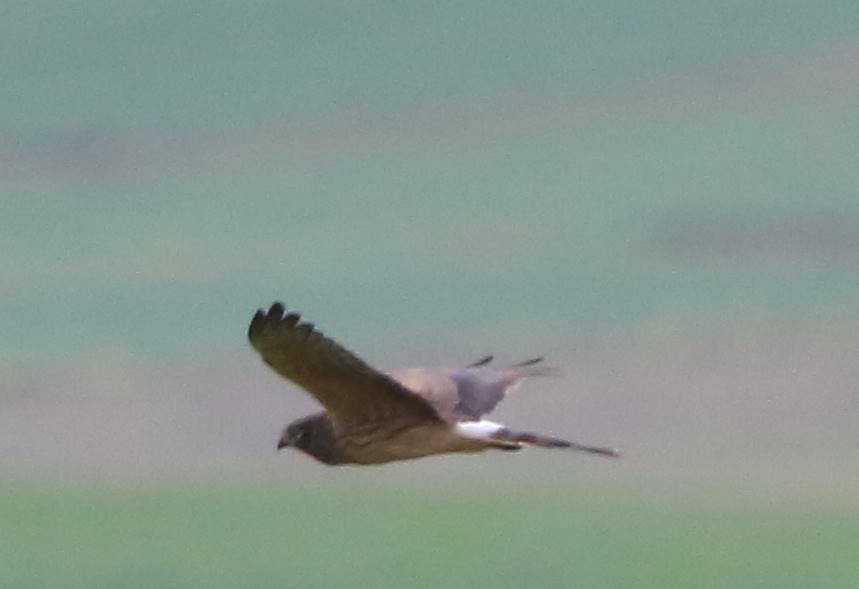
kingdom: Animalia
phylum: Chordata
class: Aves
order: Accipitriformes
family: Accipitridae
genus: Circus
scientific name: Circus pygargus
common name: Montagu's harrier
